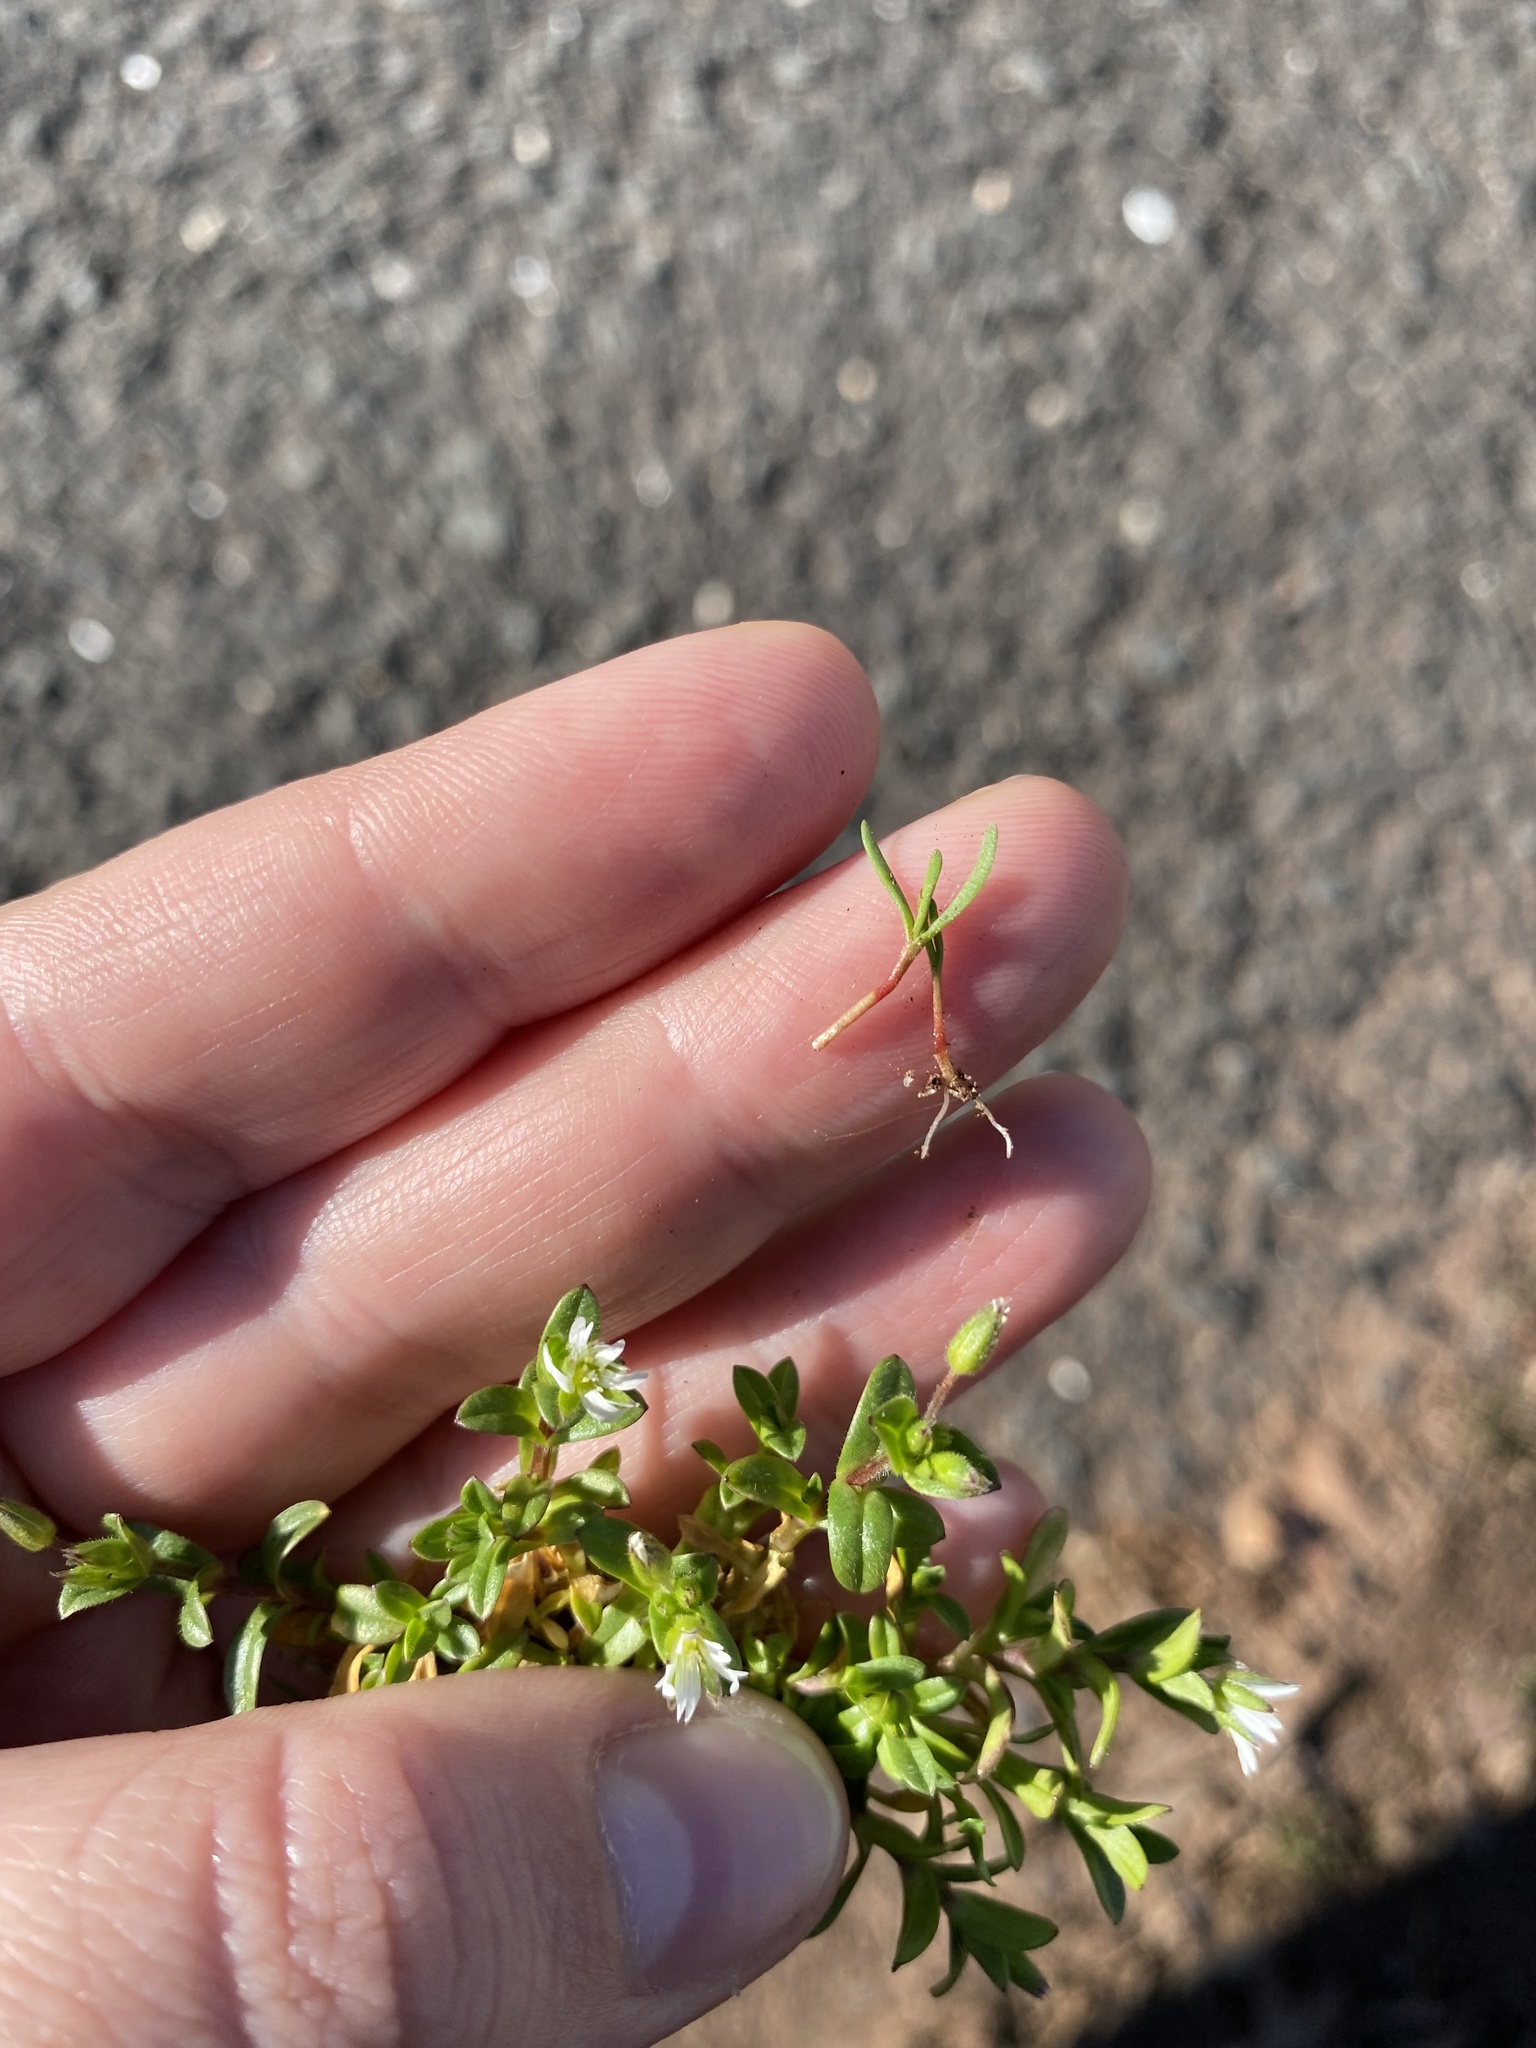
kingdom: Plantae
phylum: Tracheophyta
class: Magnoliopsida
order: Caryophyllales
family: Polygonaceae
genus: Polygonum
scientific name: Polygonum aviculare
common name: Prostrate knotweed
